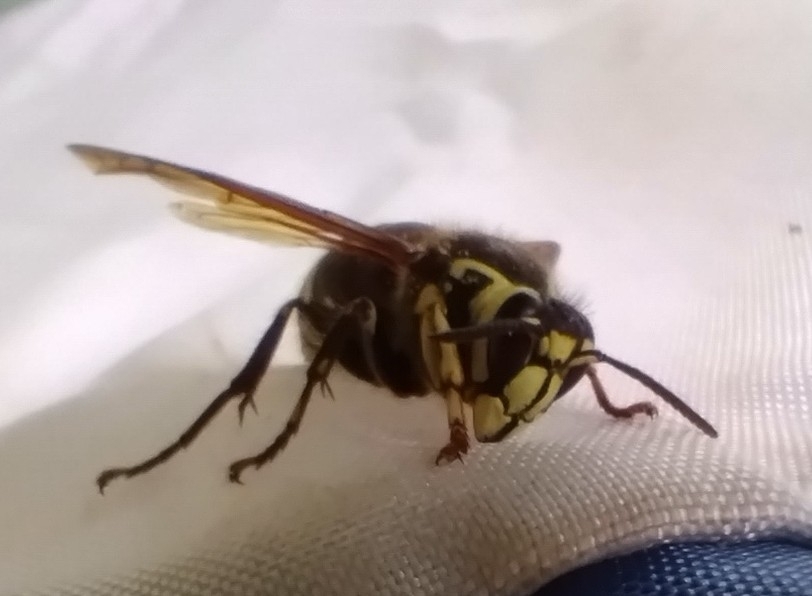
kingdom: Animalia
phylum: Arthropoda
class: Insecta
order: Hymenoptera
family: Vespidae
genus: Dolichovespula
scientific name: Dolichovespula maculata
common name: Bald-faced hornet
